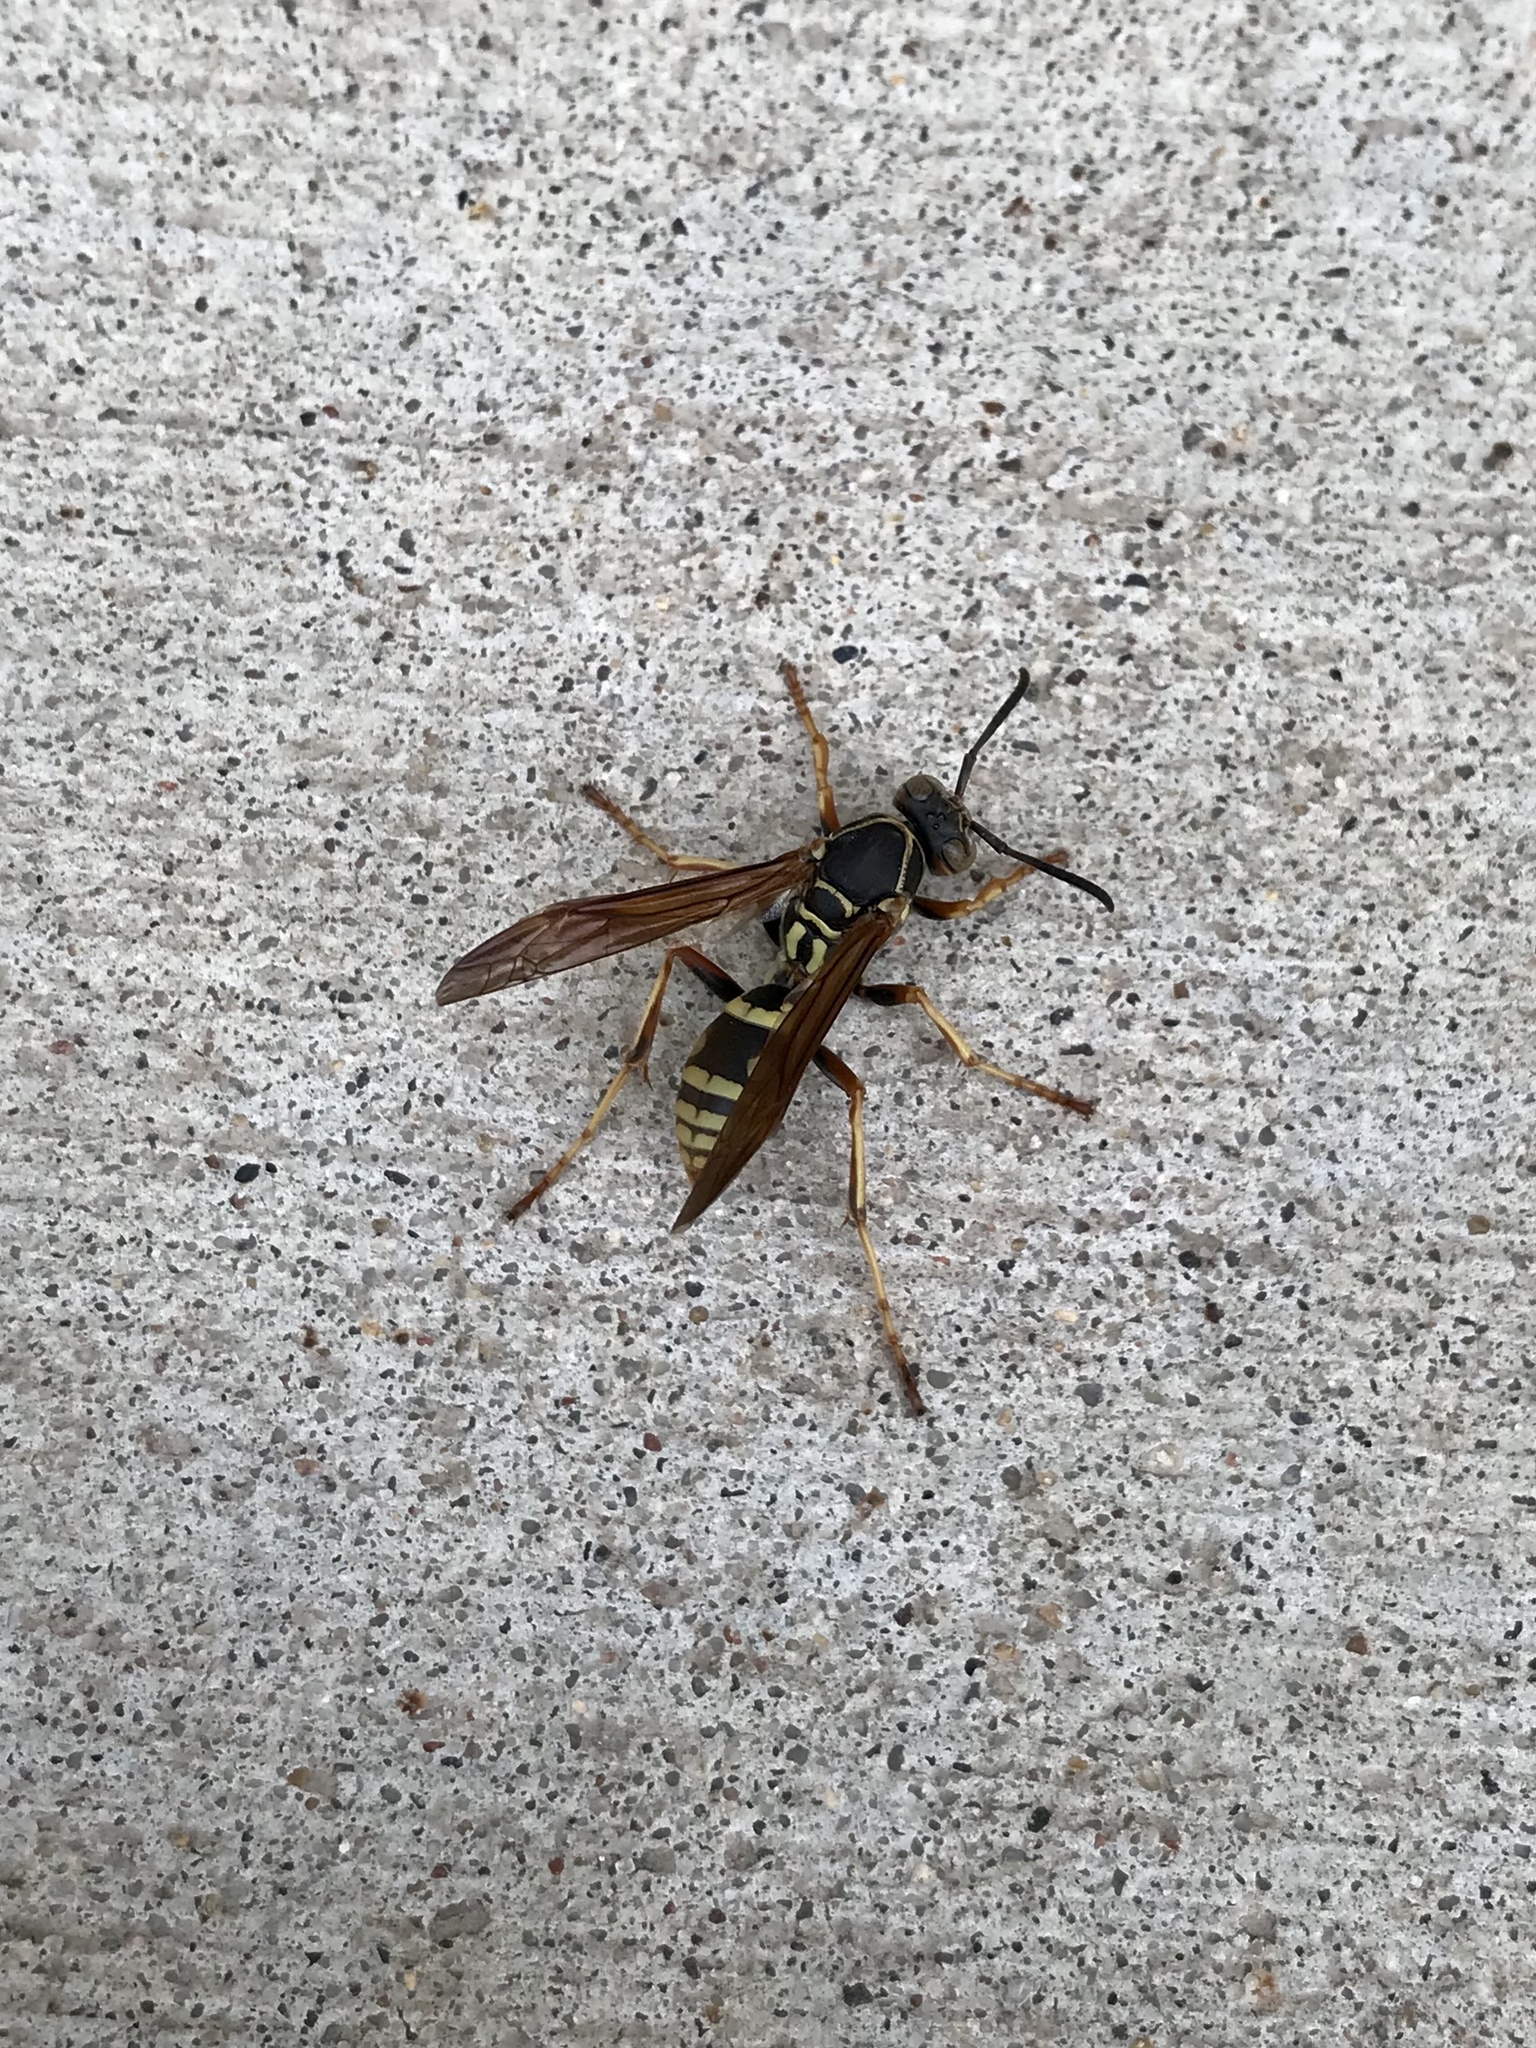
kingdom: Animalia
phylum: Arthropoda
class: Insecta
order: Hymenoptera
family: Eumenidae
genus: Polistes
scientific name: Polistes fuscatus
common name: Dark paper wasp
